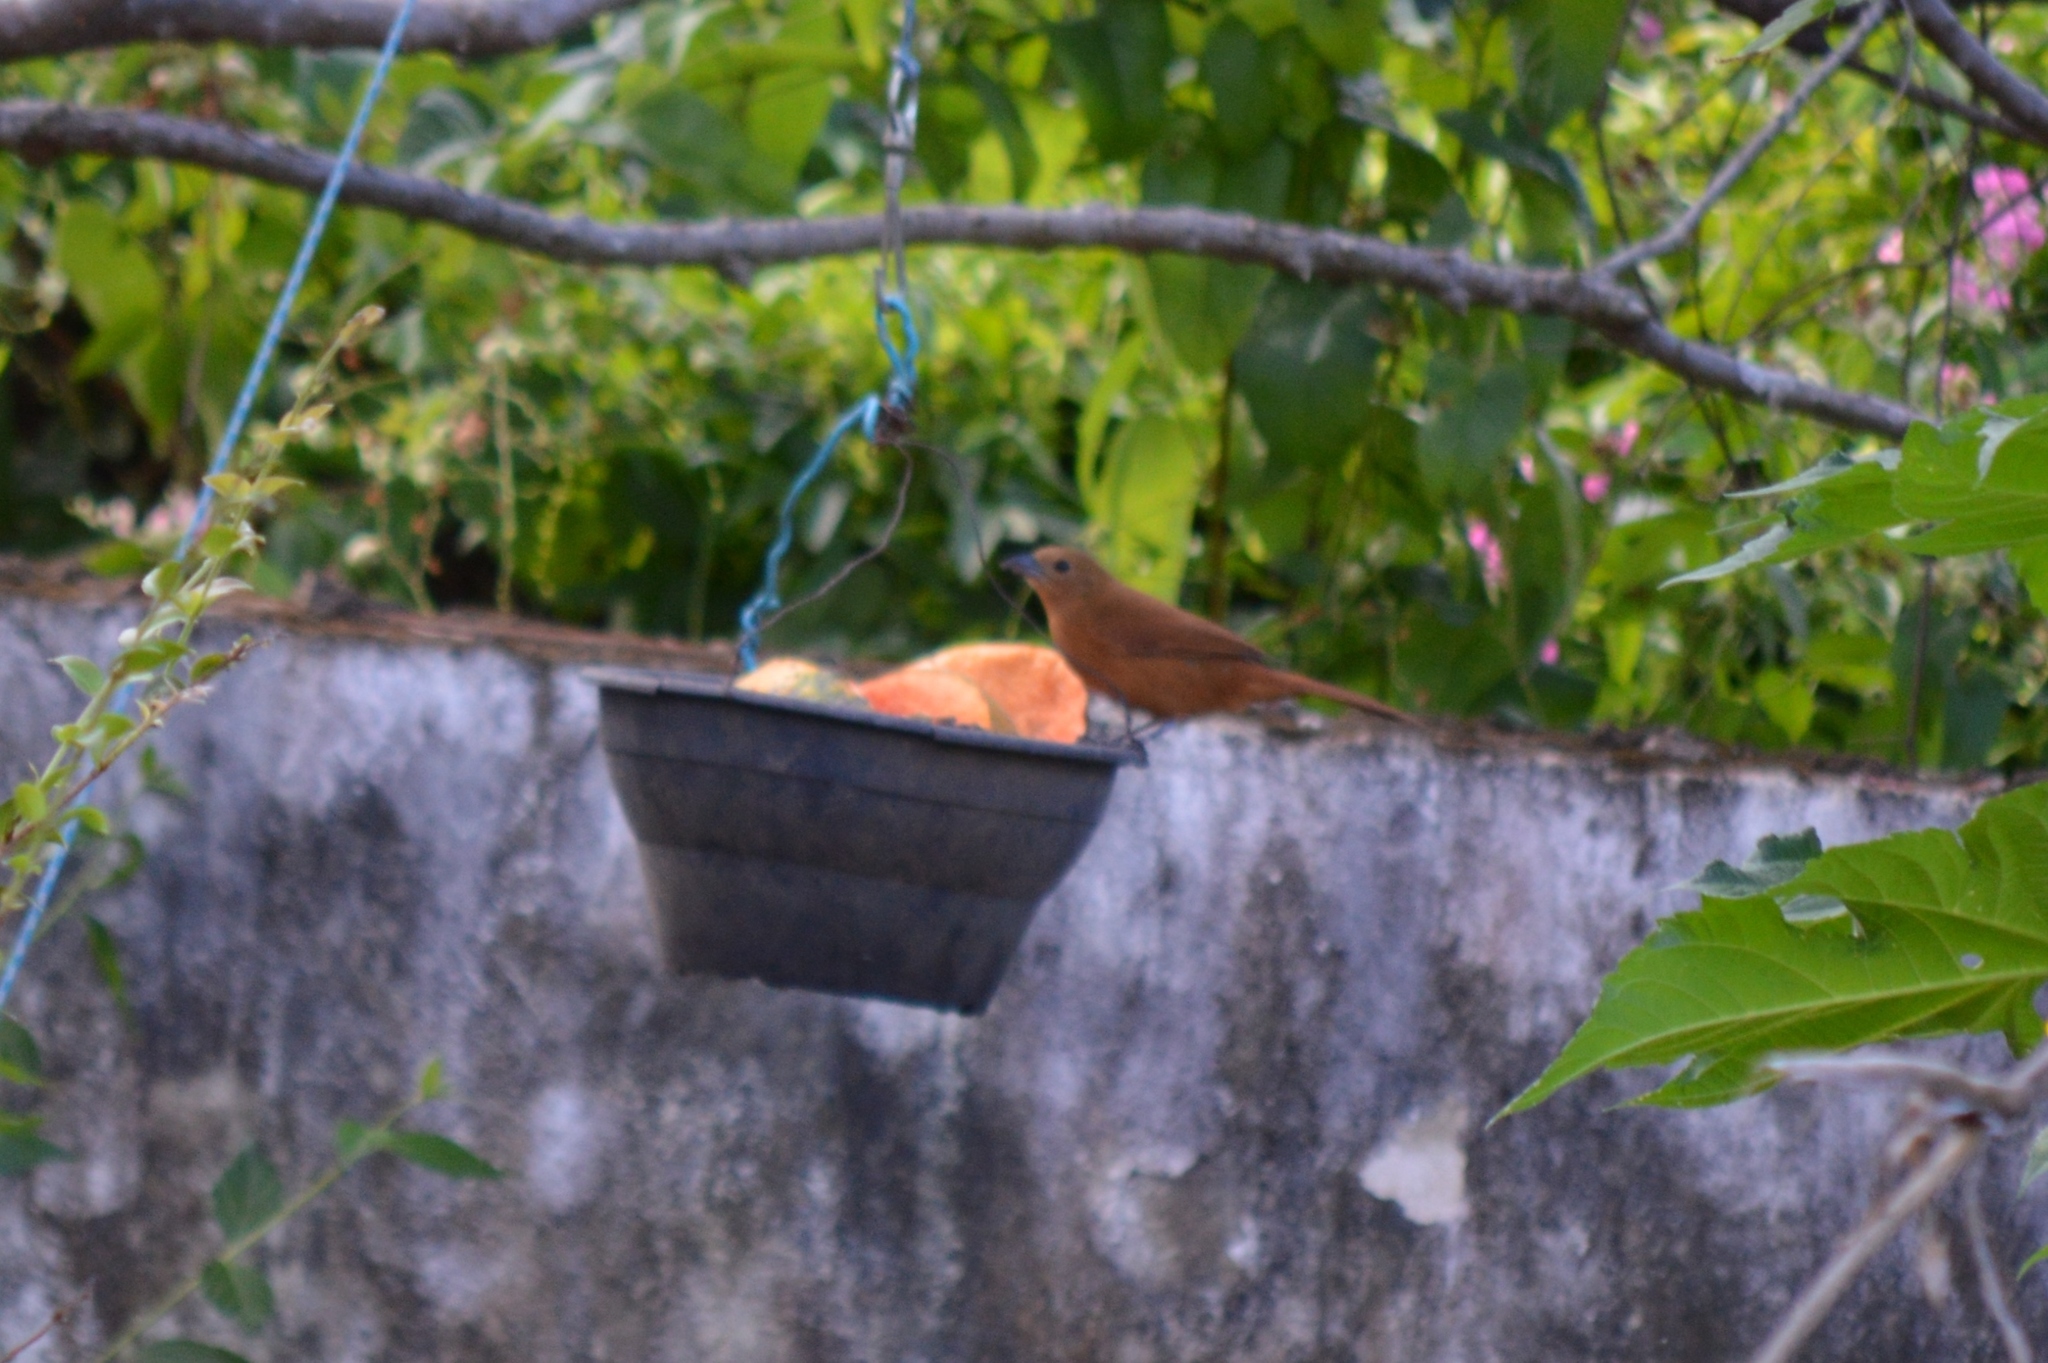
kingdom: Animalia
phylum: Chordata
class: Aves
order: Passeriformes
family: Thraupidae
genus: Tachyphonus
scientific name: Tachyphonus rufus
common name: White-lined tanager
